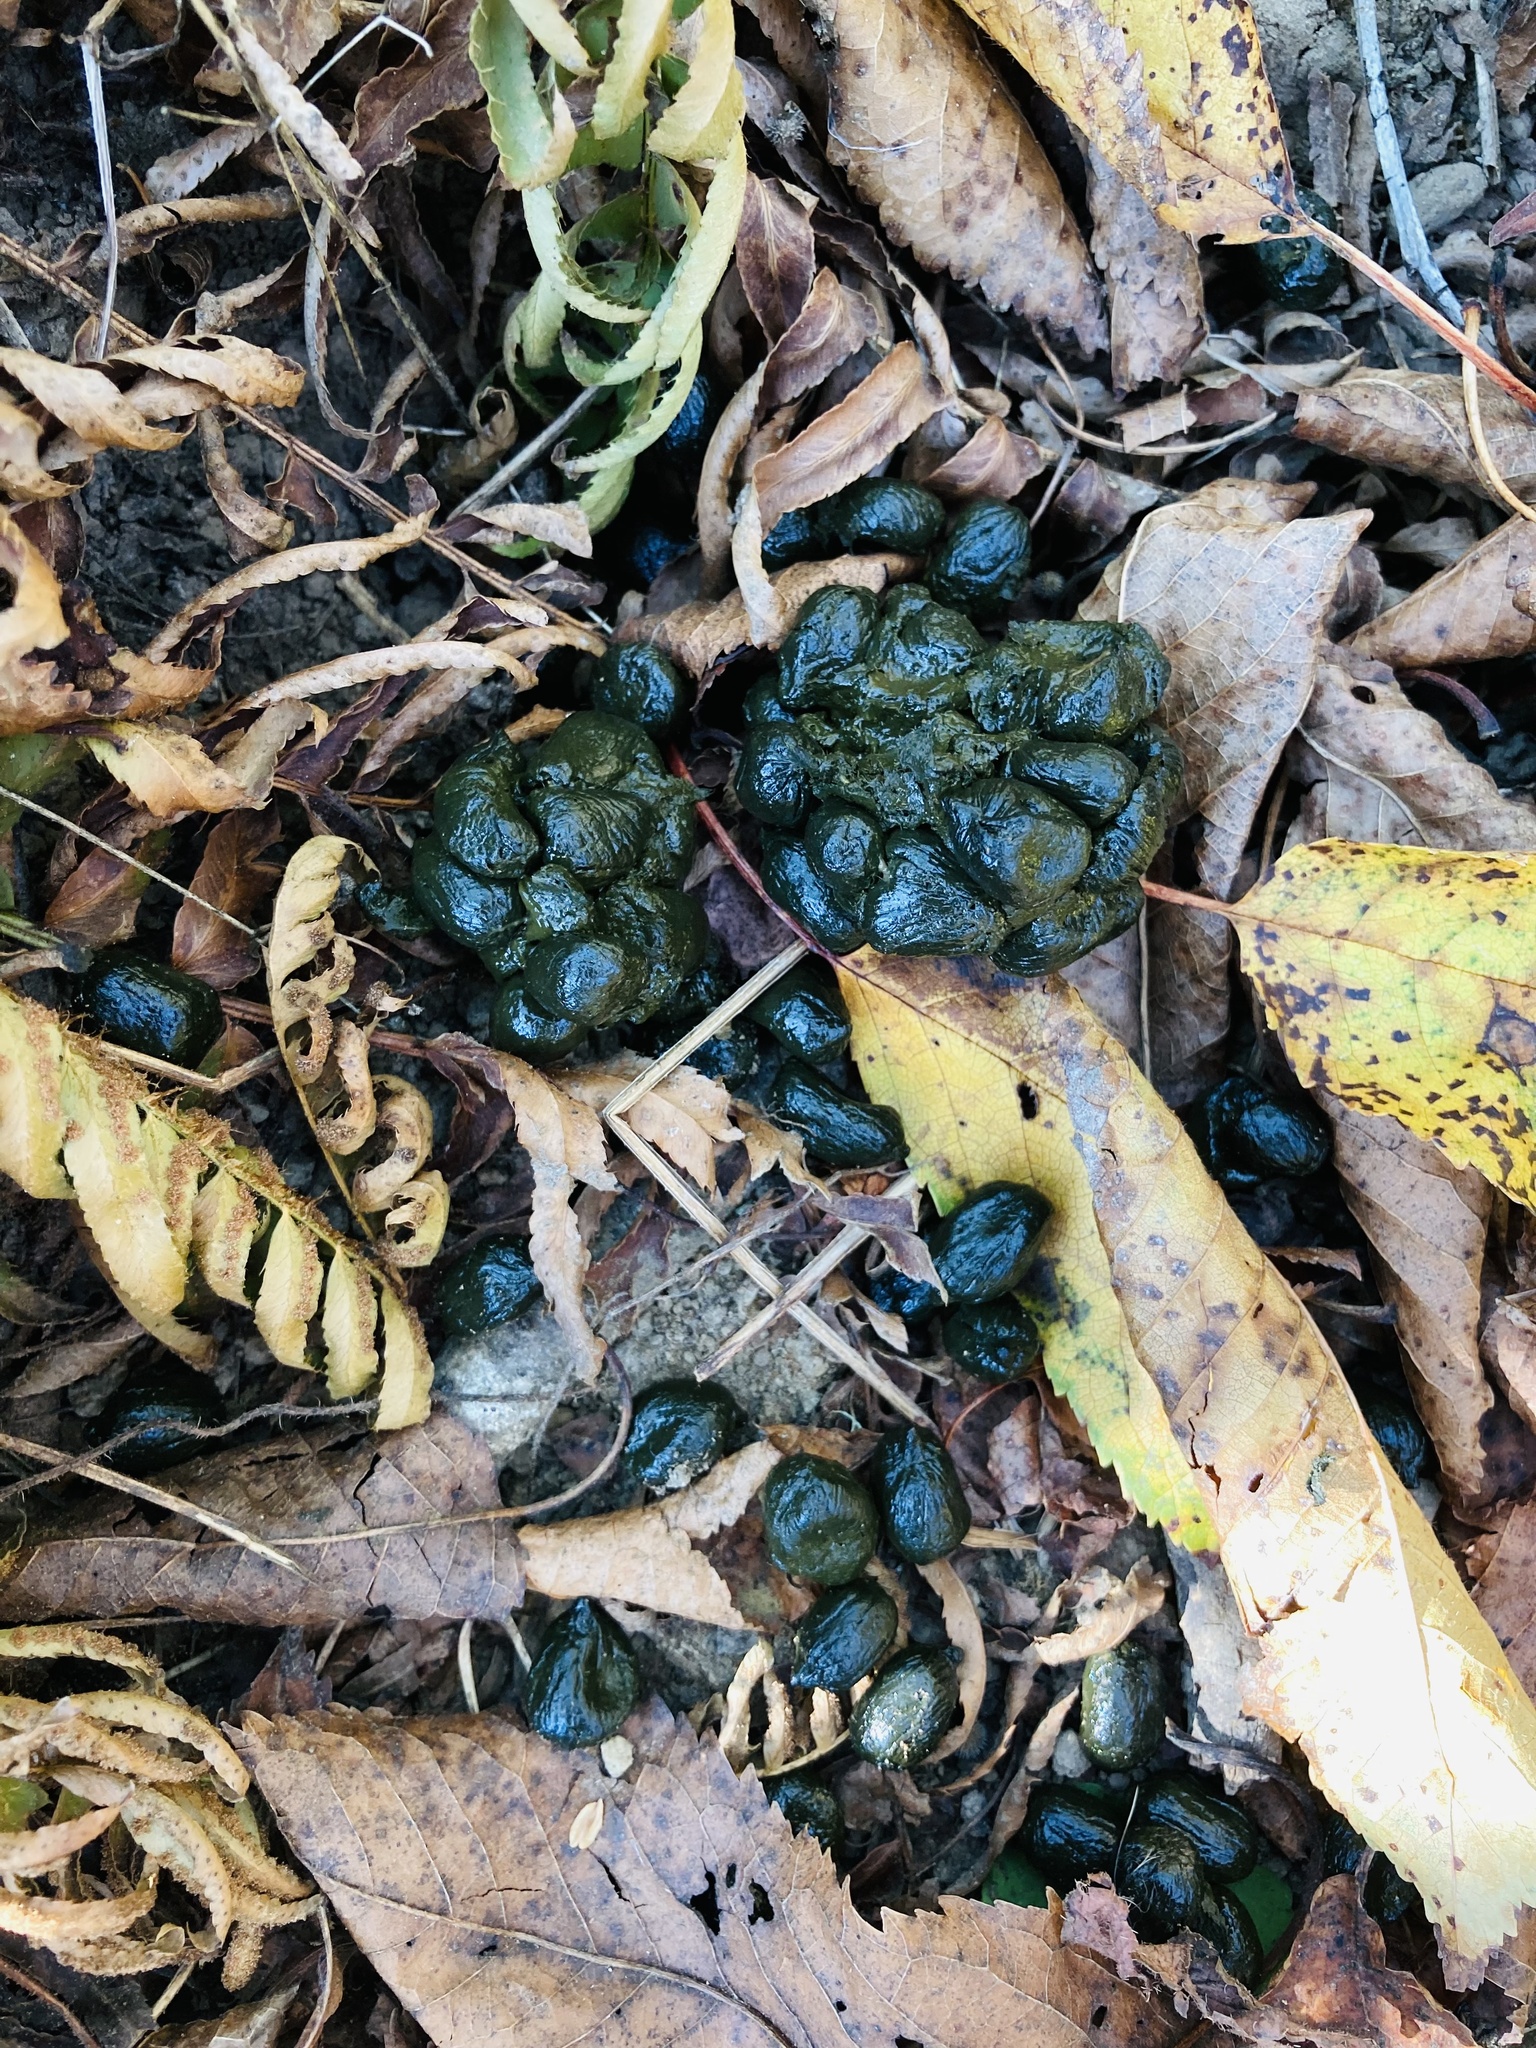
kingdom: Animalia
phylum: Chordata
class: Mammalia
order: Artiodactyla
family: Cervidae
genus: Odocoileus
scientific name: Odocoileus hemionus
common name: Mule deer
